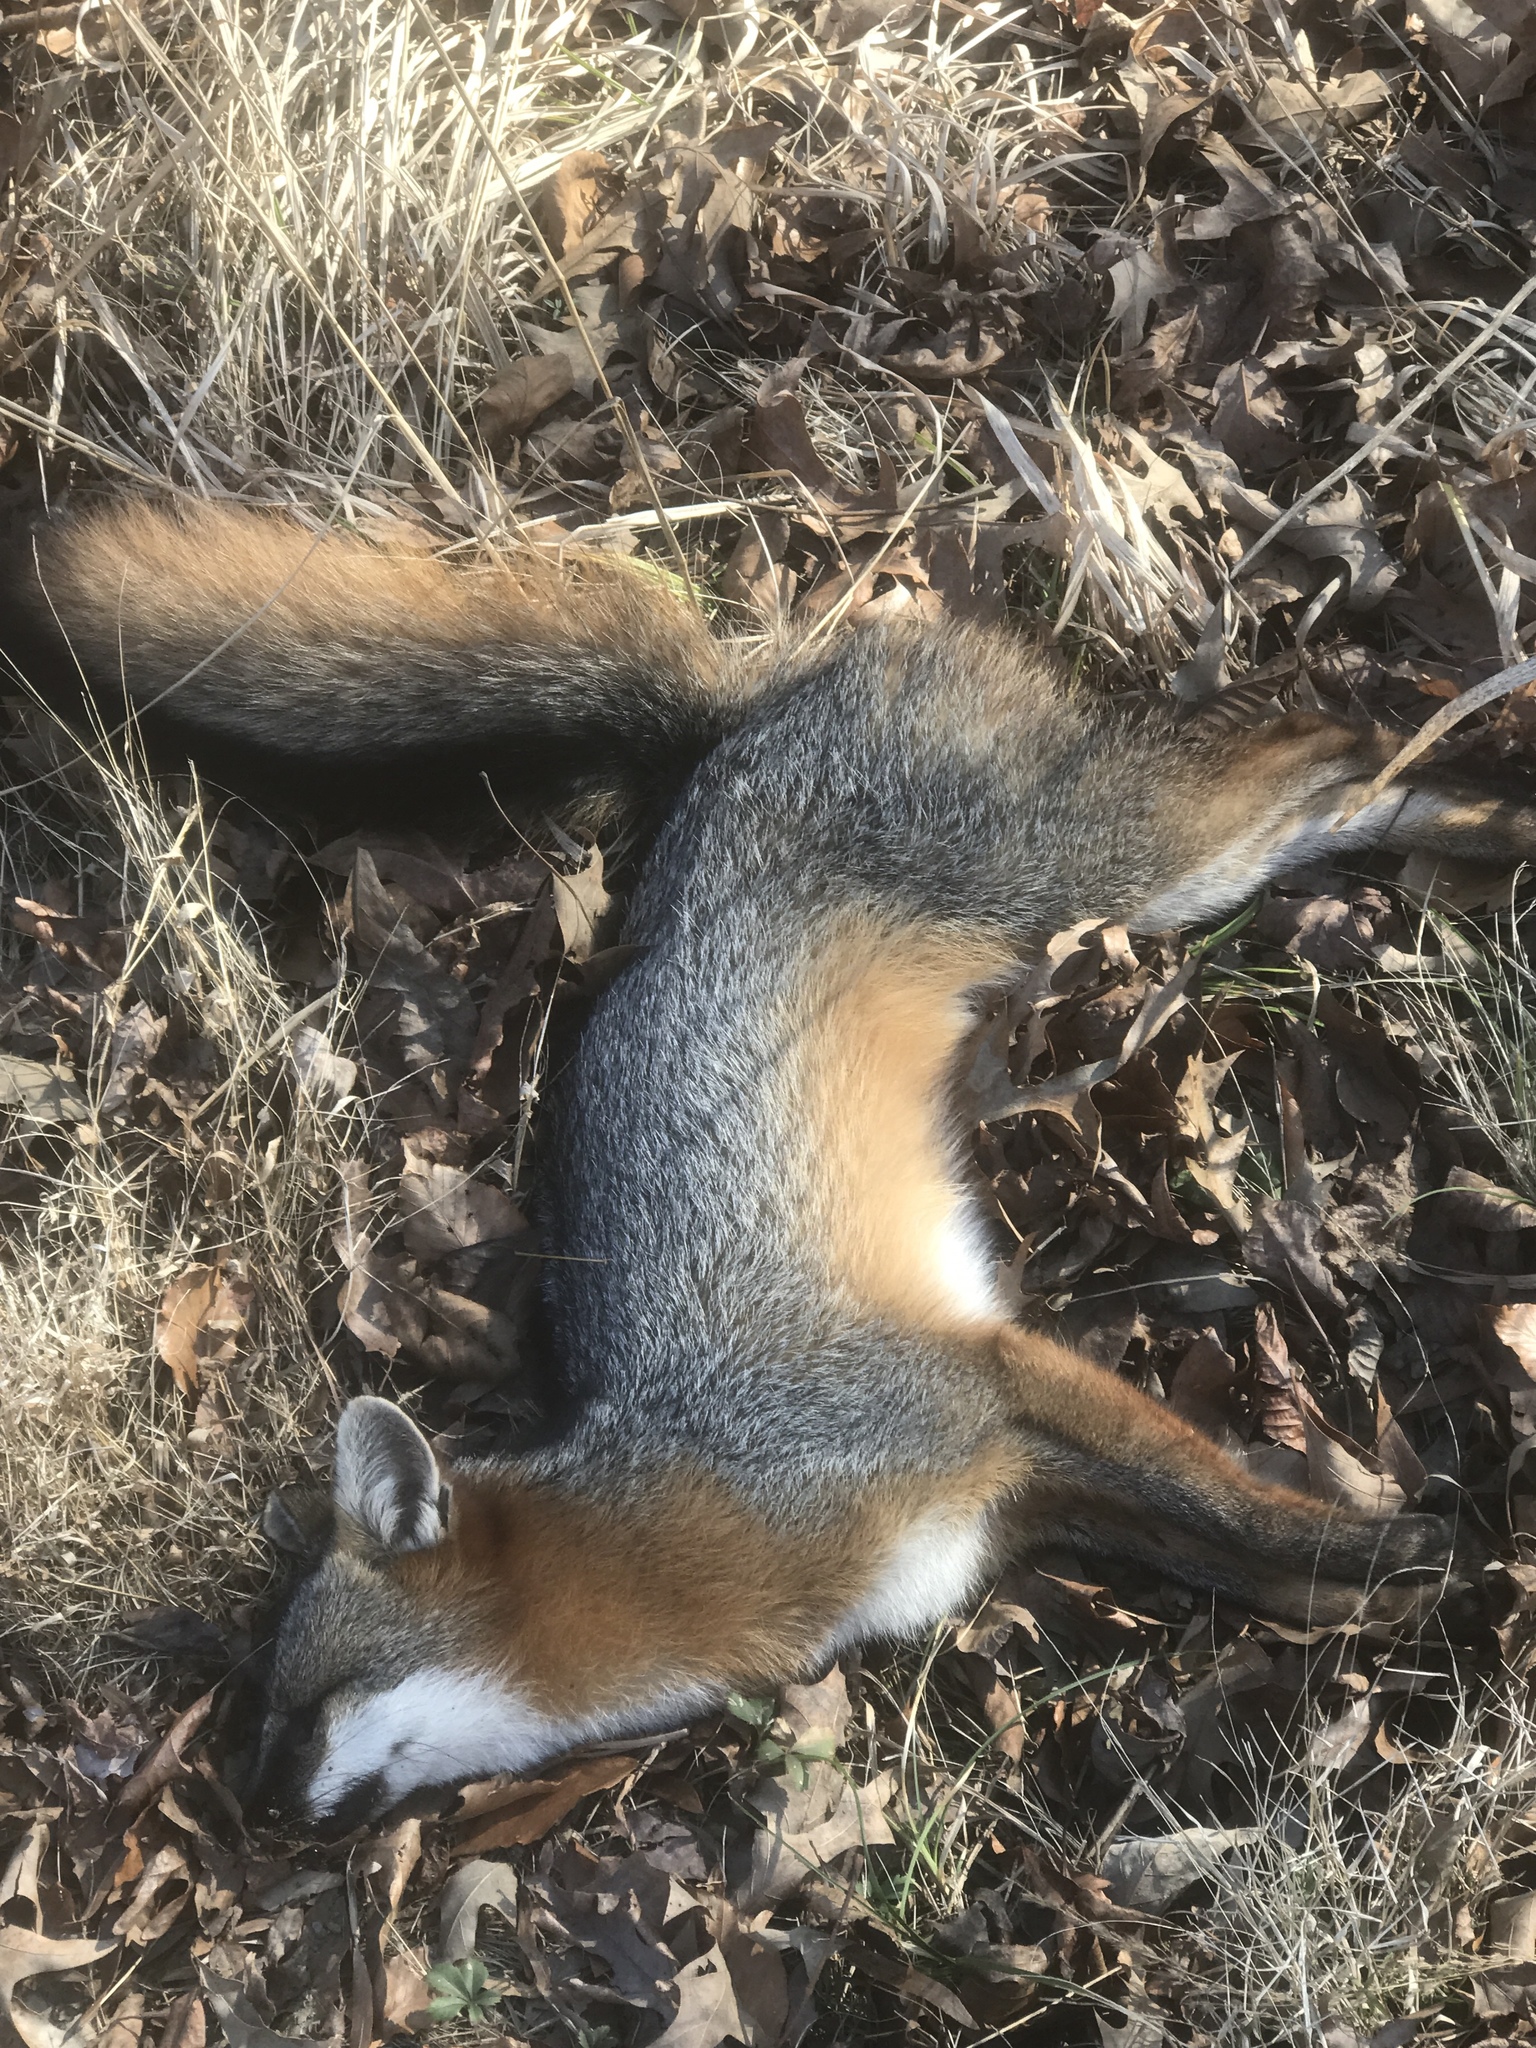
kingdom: Animalia
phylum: Chordata
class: Mammalia
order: Carnivora
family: Canidae
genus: Urocyon
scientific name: Urocyon cinereoargenteus
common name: Gray fox
